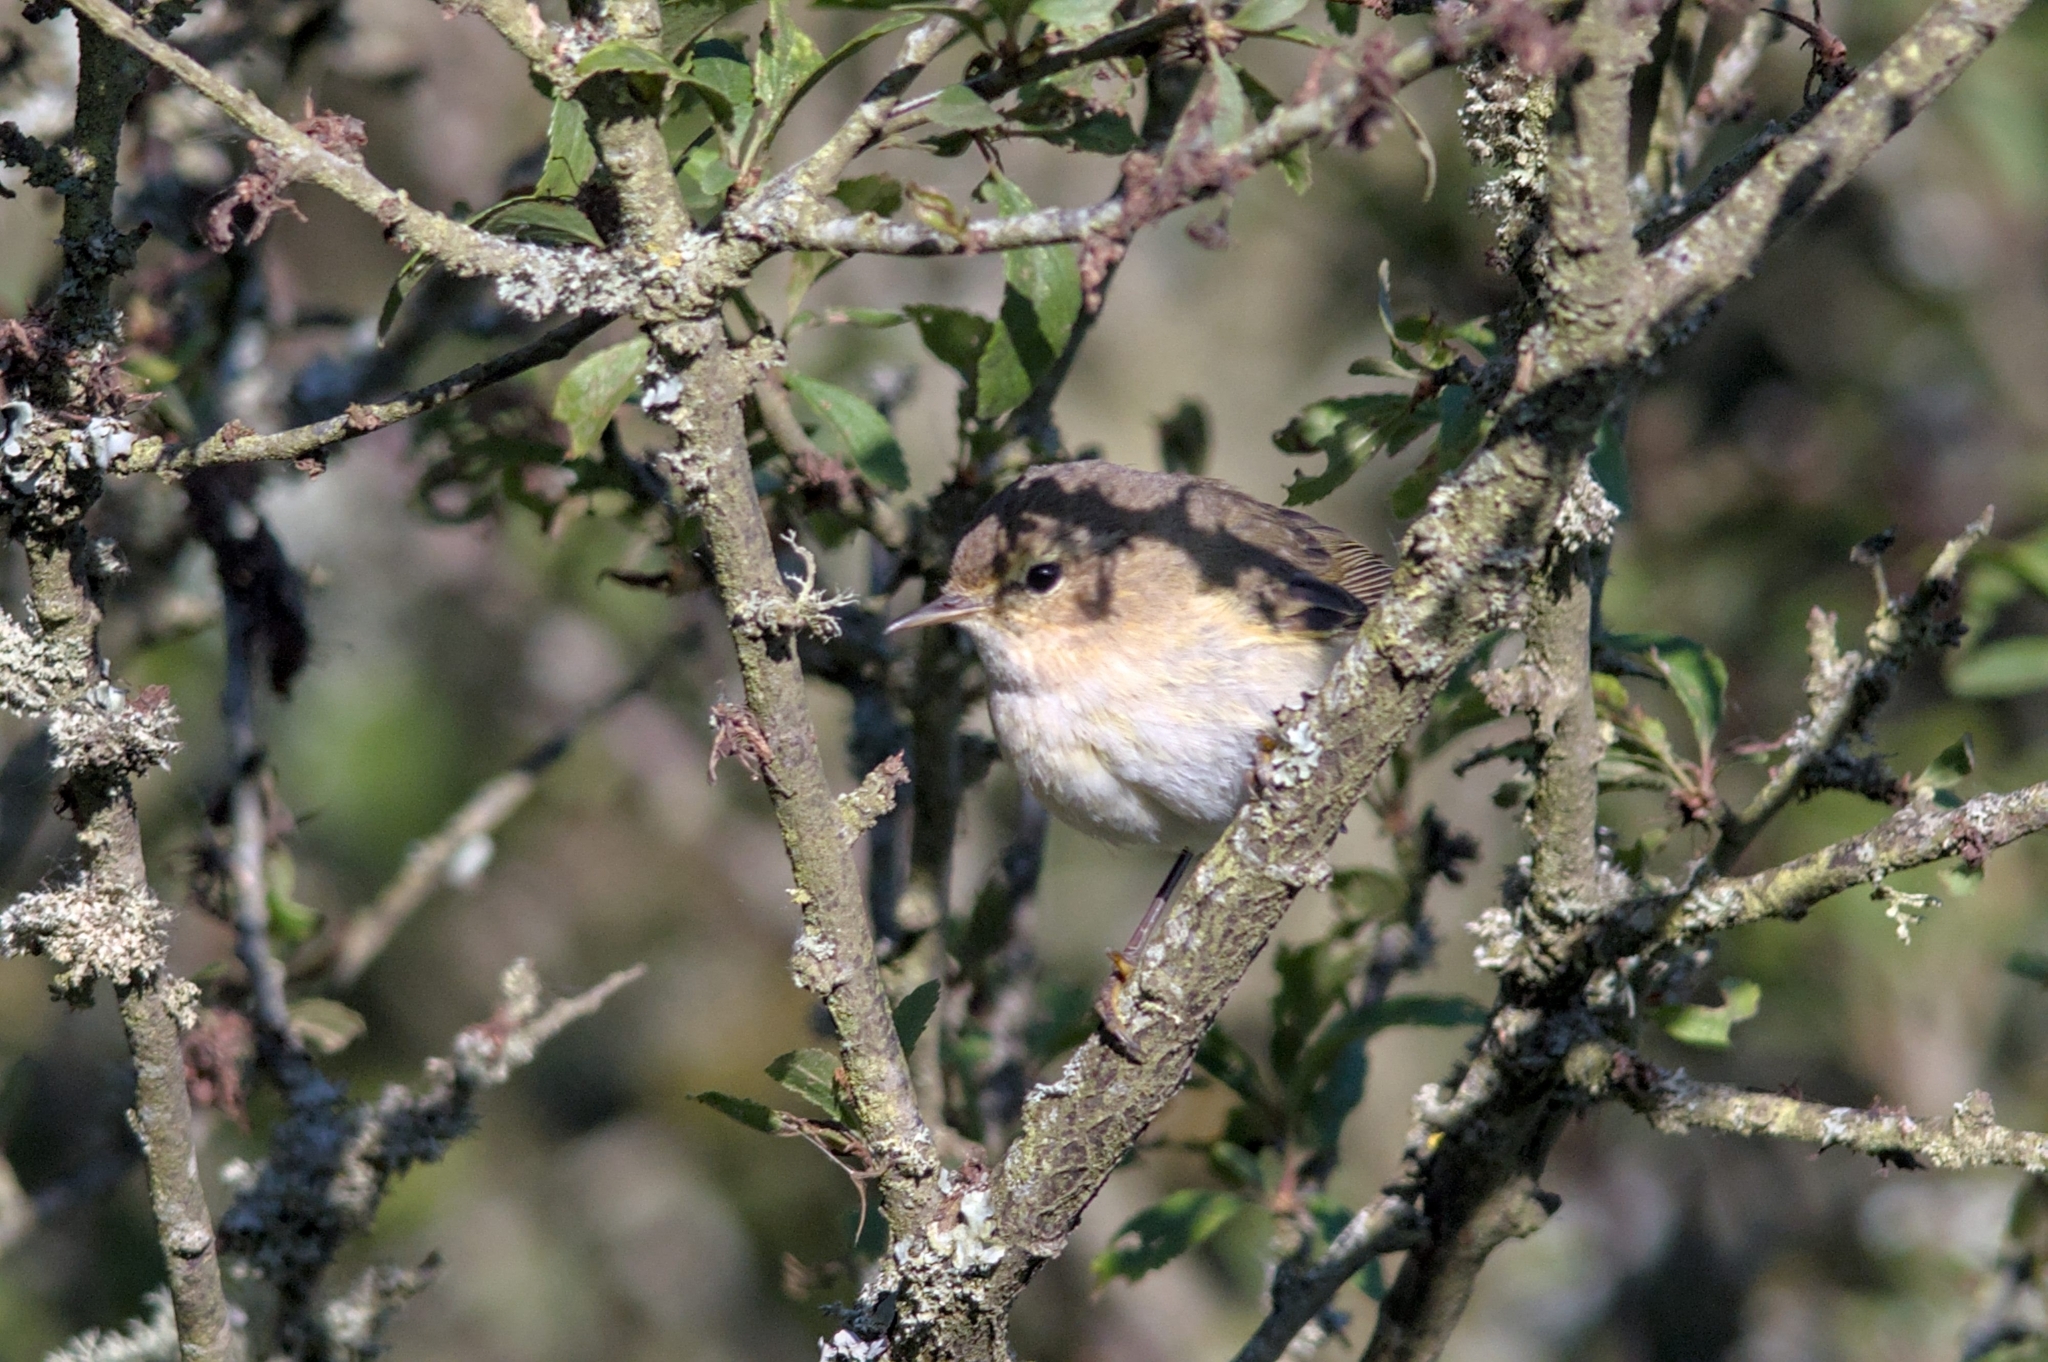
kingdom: Animalia
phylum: Chordata
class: Aves
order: Passeriformes
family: Phylloscopidae
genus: Phylloscopus
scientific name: Phylloscopus collybita
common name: Common chiffchaff
